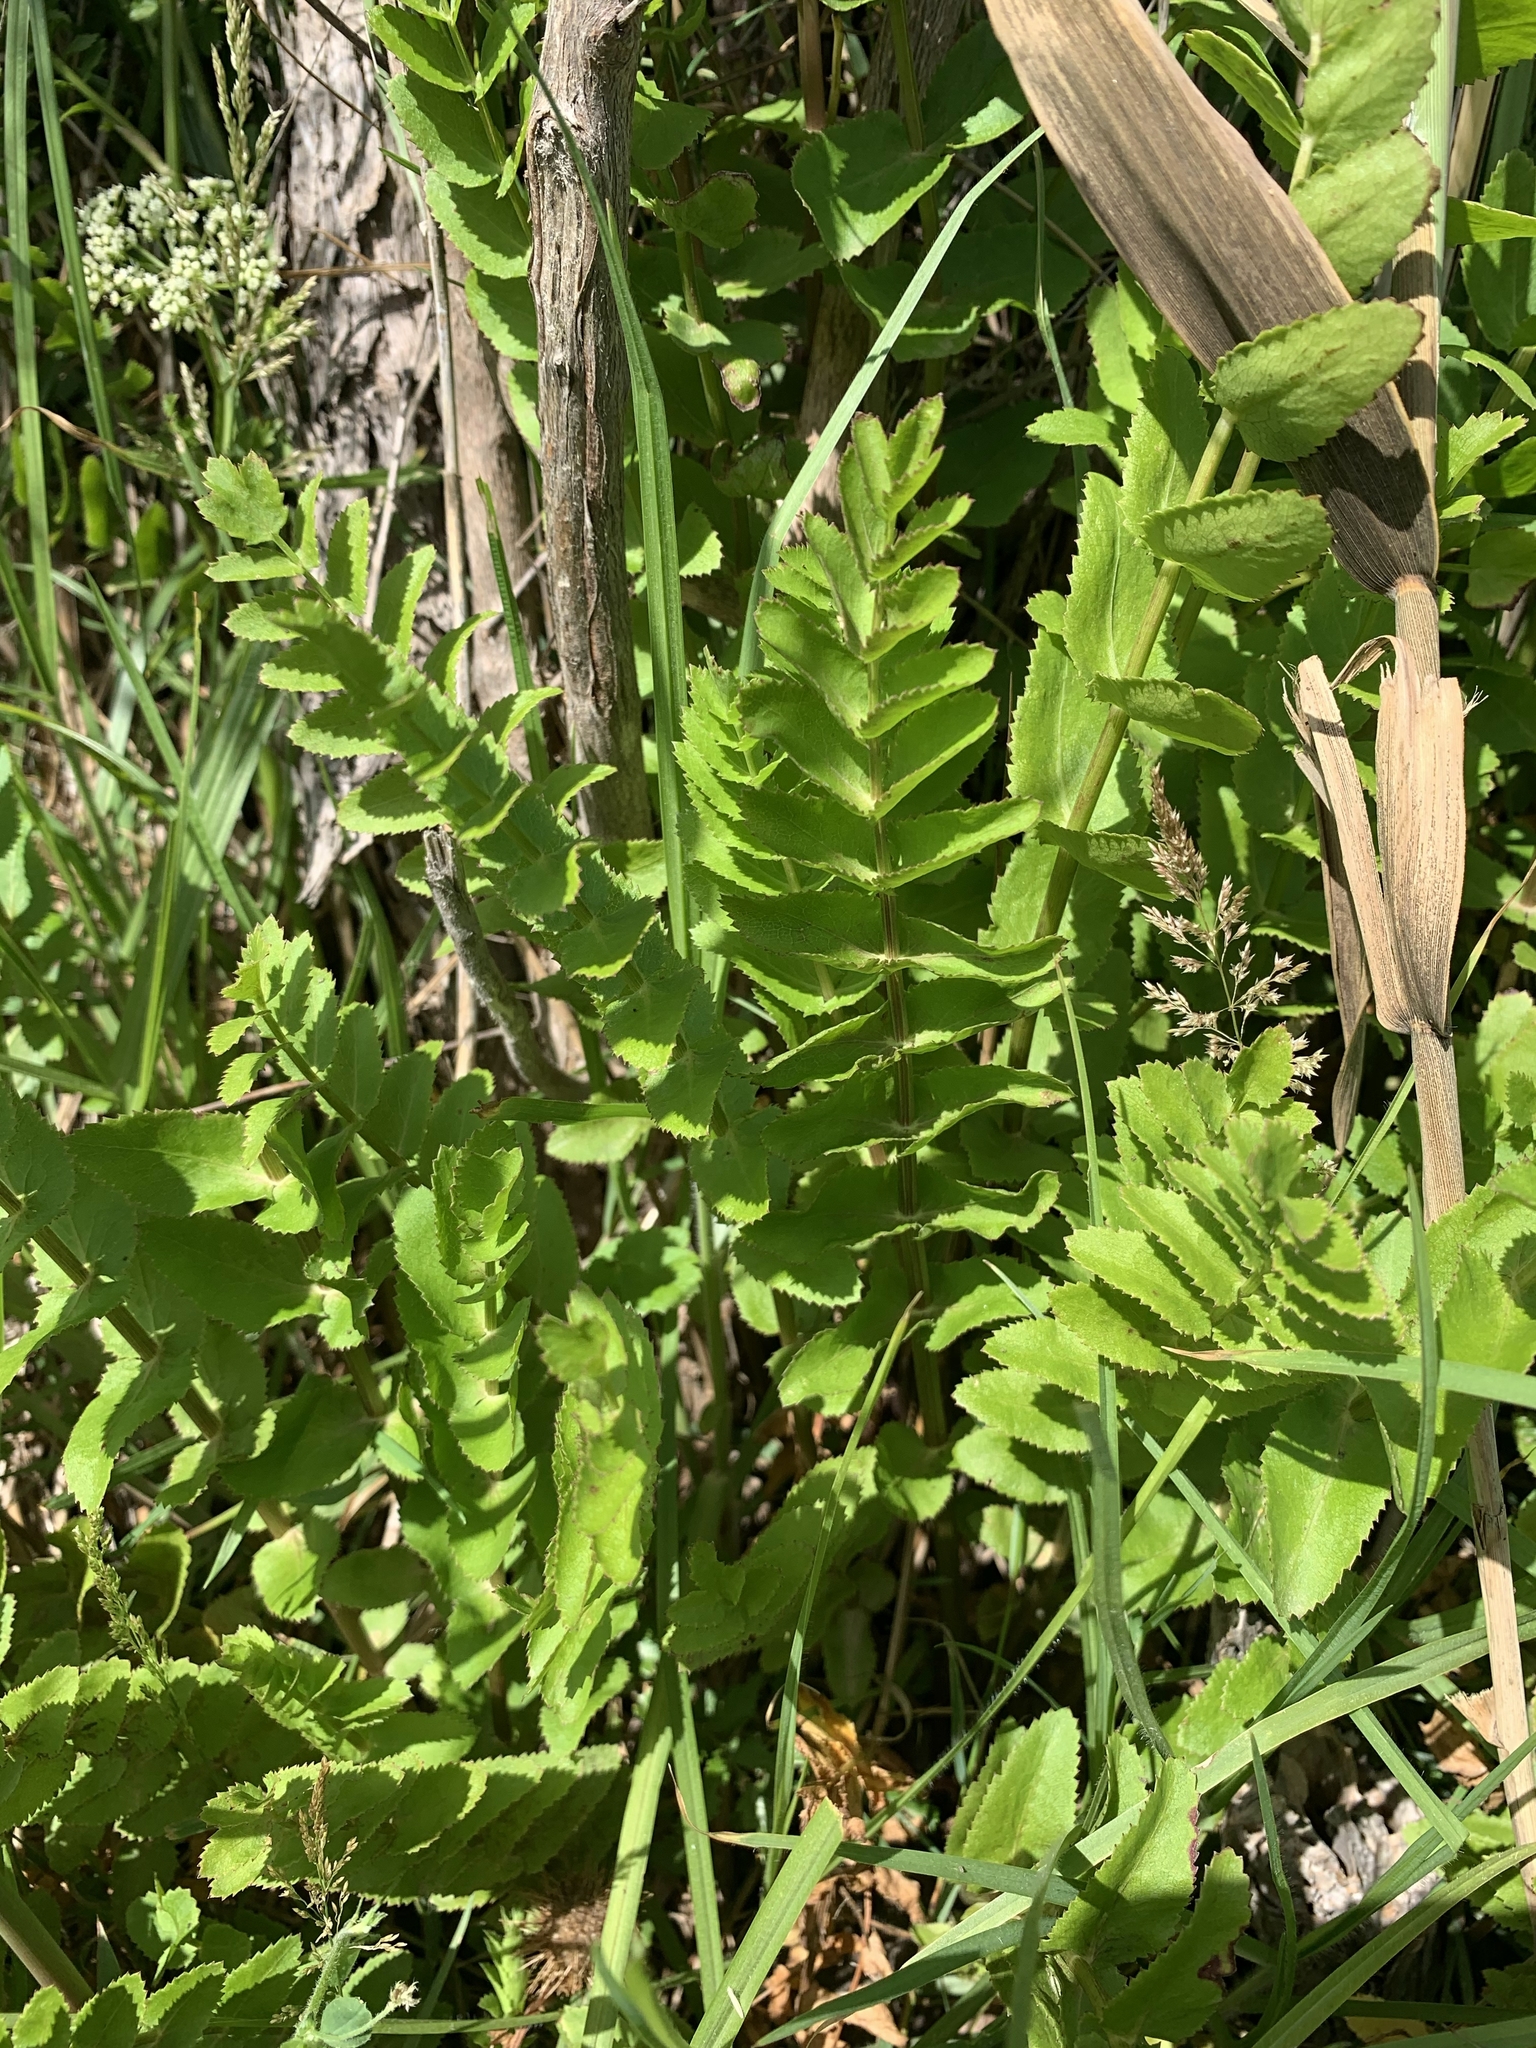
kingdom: Plantae
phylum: Tracheophyta
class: Magnoliopsida
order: Apiales
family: Apiaceae
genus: Berula
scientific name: Berula erecta
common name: Lesser water-parsnip
